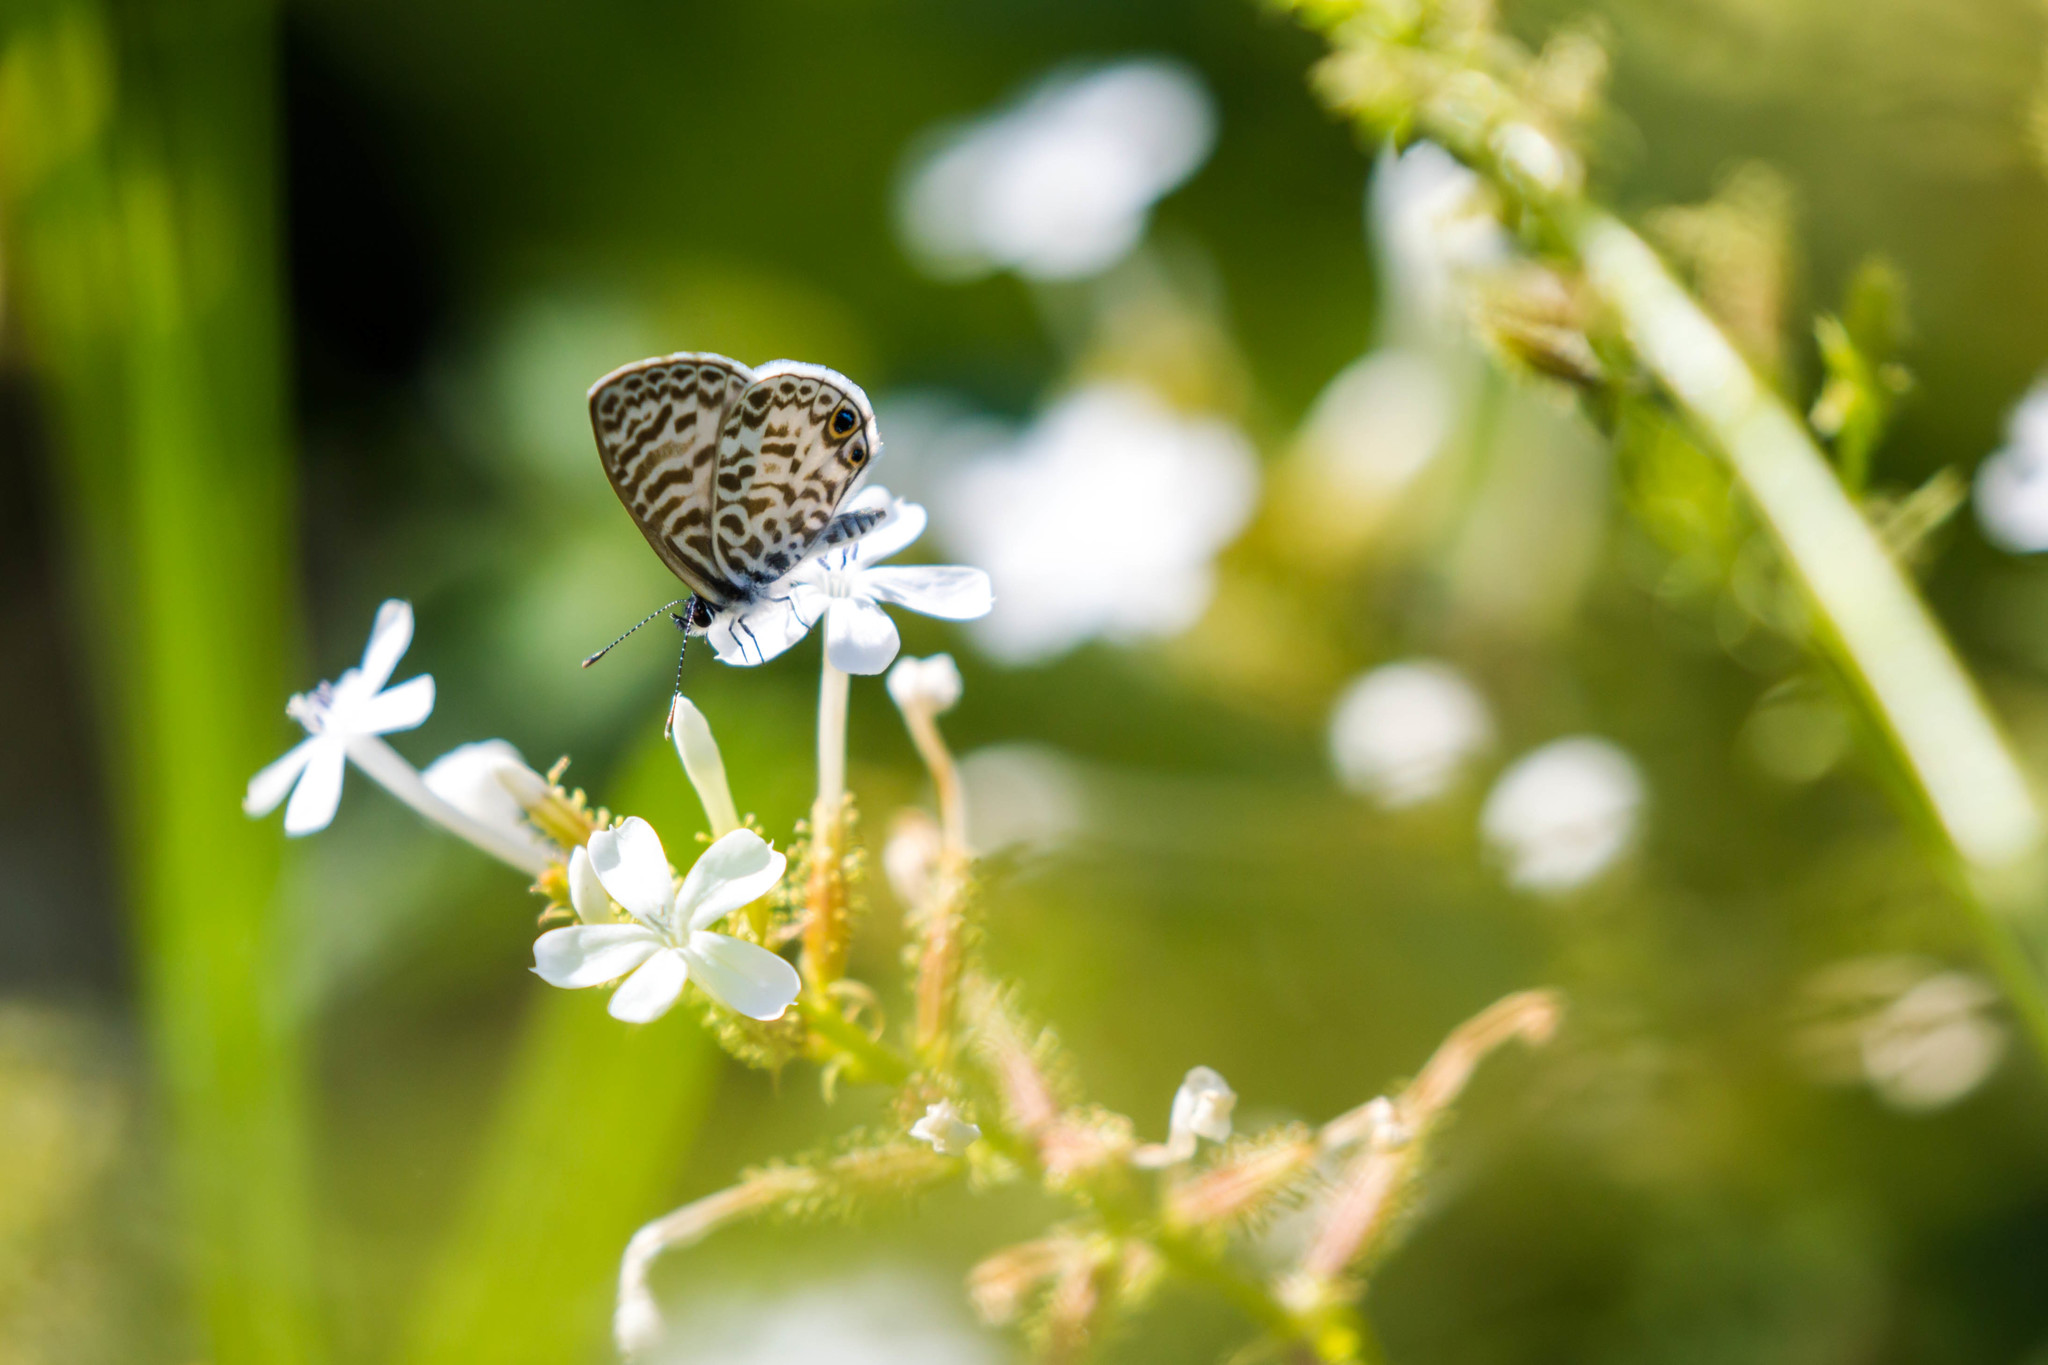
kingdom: Animalia
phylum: Arthropoda
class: Insecta
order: Lepidoptera
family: Lycaenidae
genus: Leptotes
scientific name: Leptotes cassius
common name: Cassius blue
